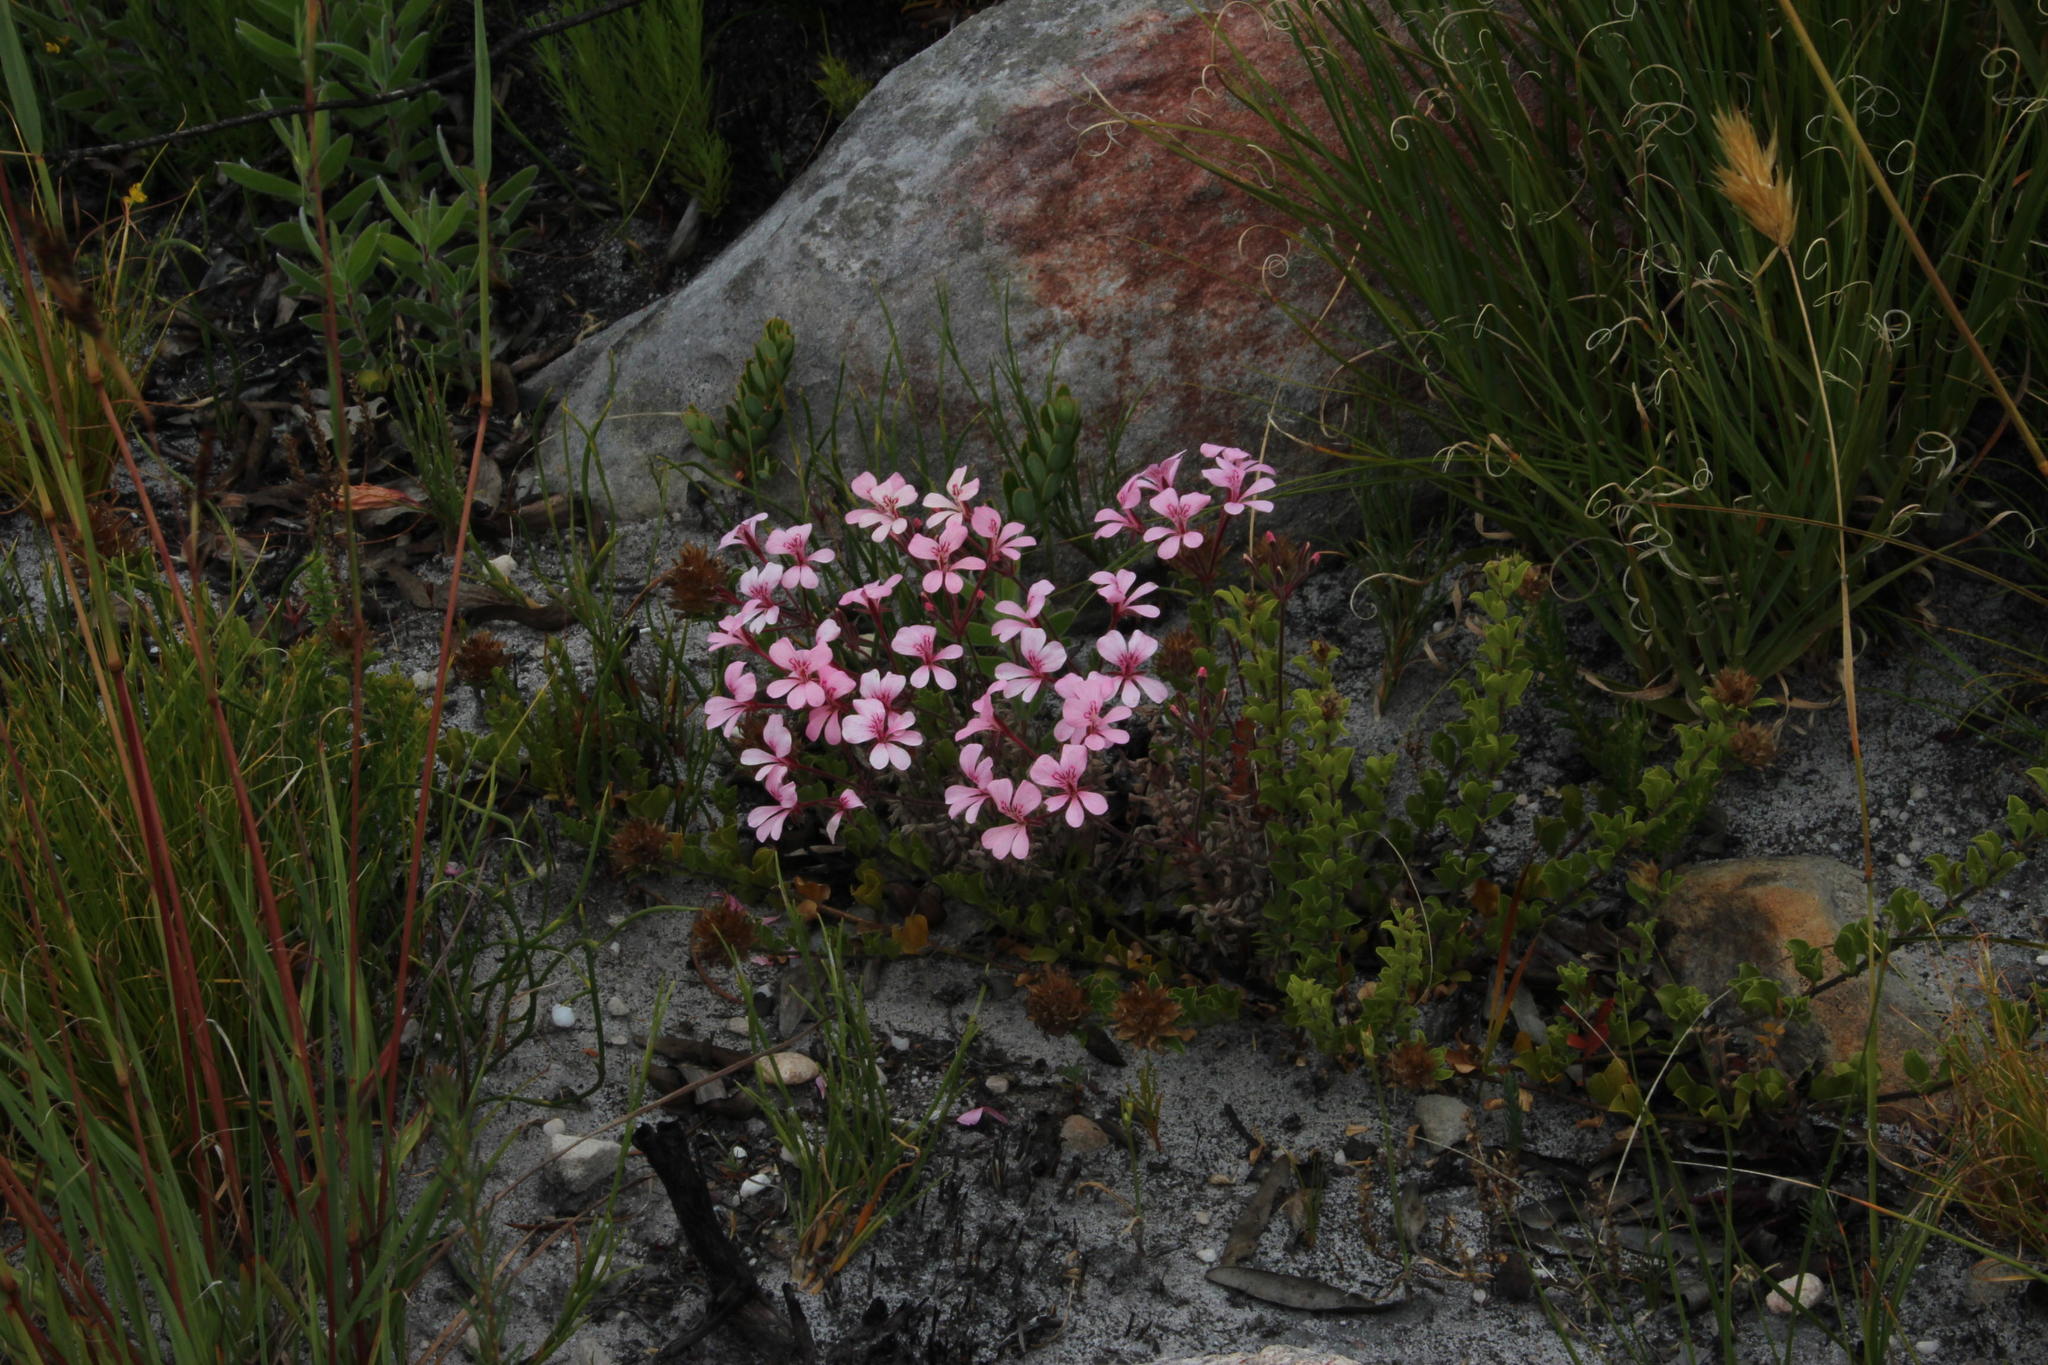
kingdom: Plantae
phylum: Tracheophyta
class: Magnoliopsida
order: Geraniales
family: Geraniaceae
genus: Pelargonium
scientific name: Pelargonium pinnatum
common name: Pinnated pelargonium
